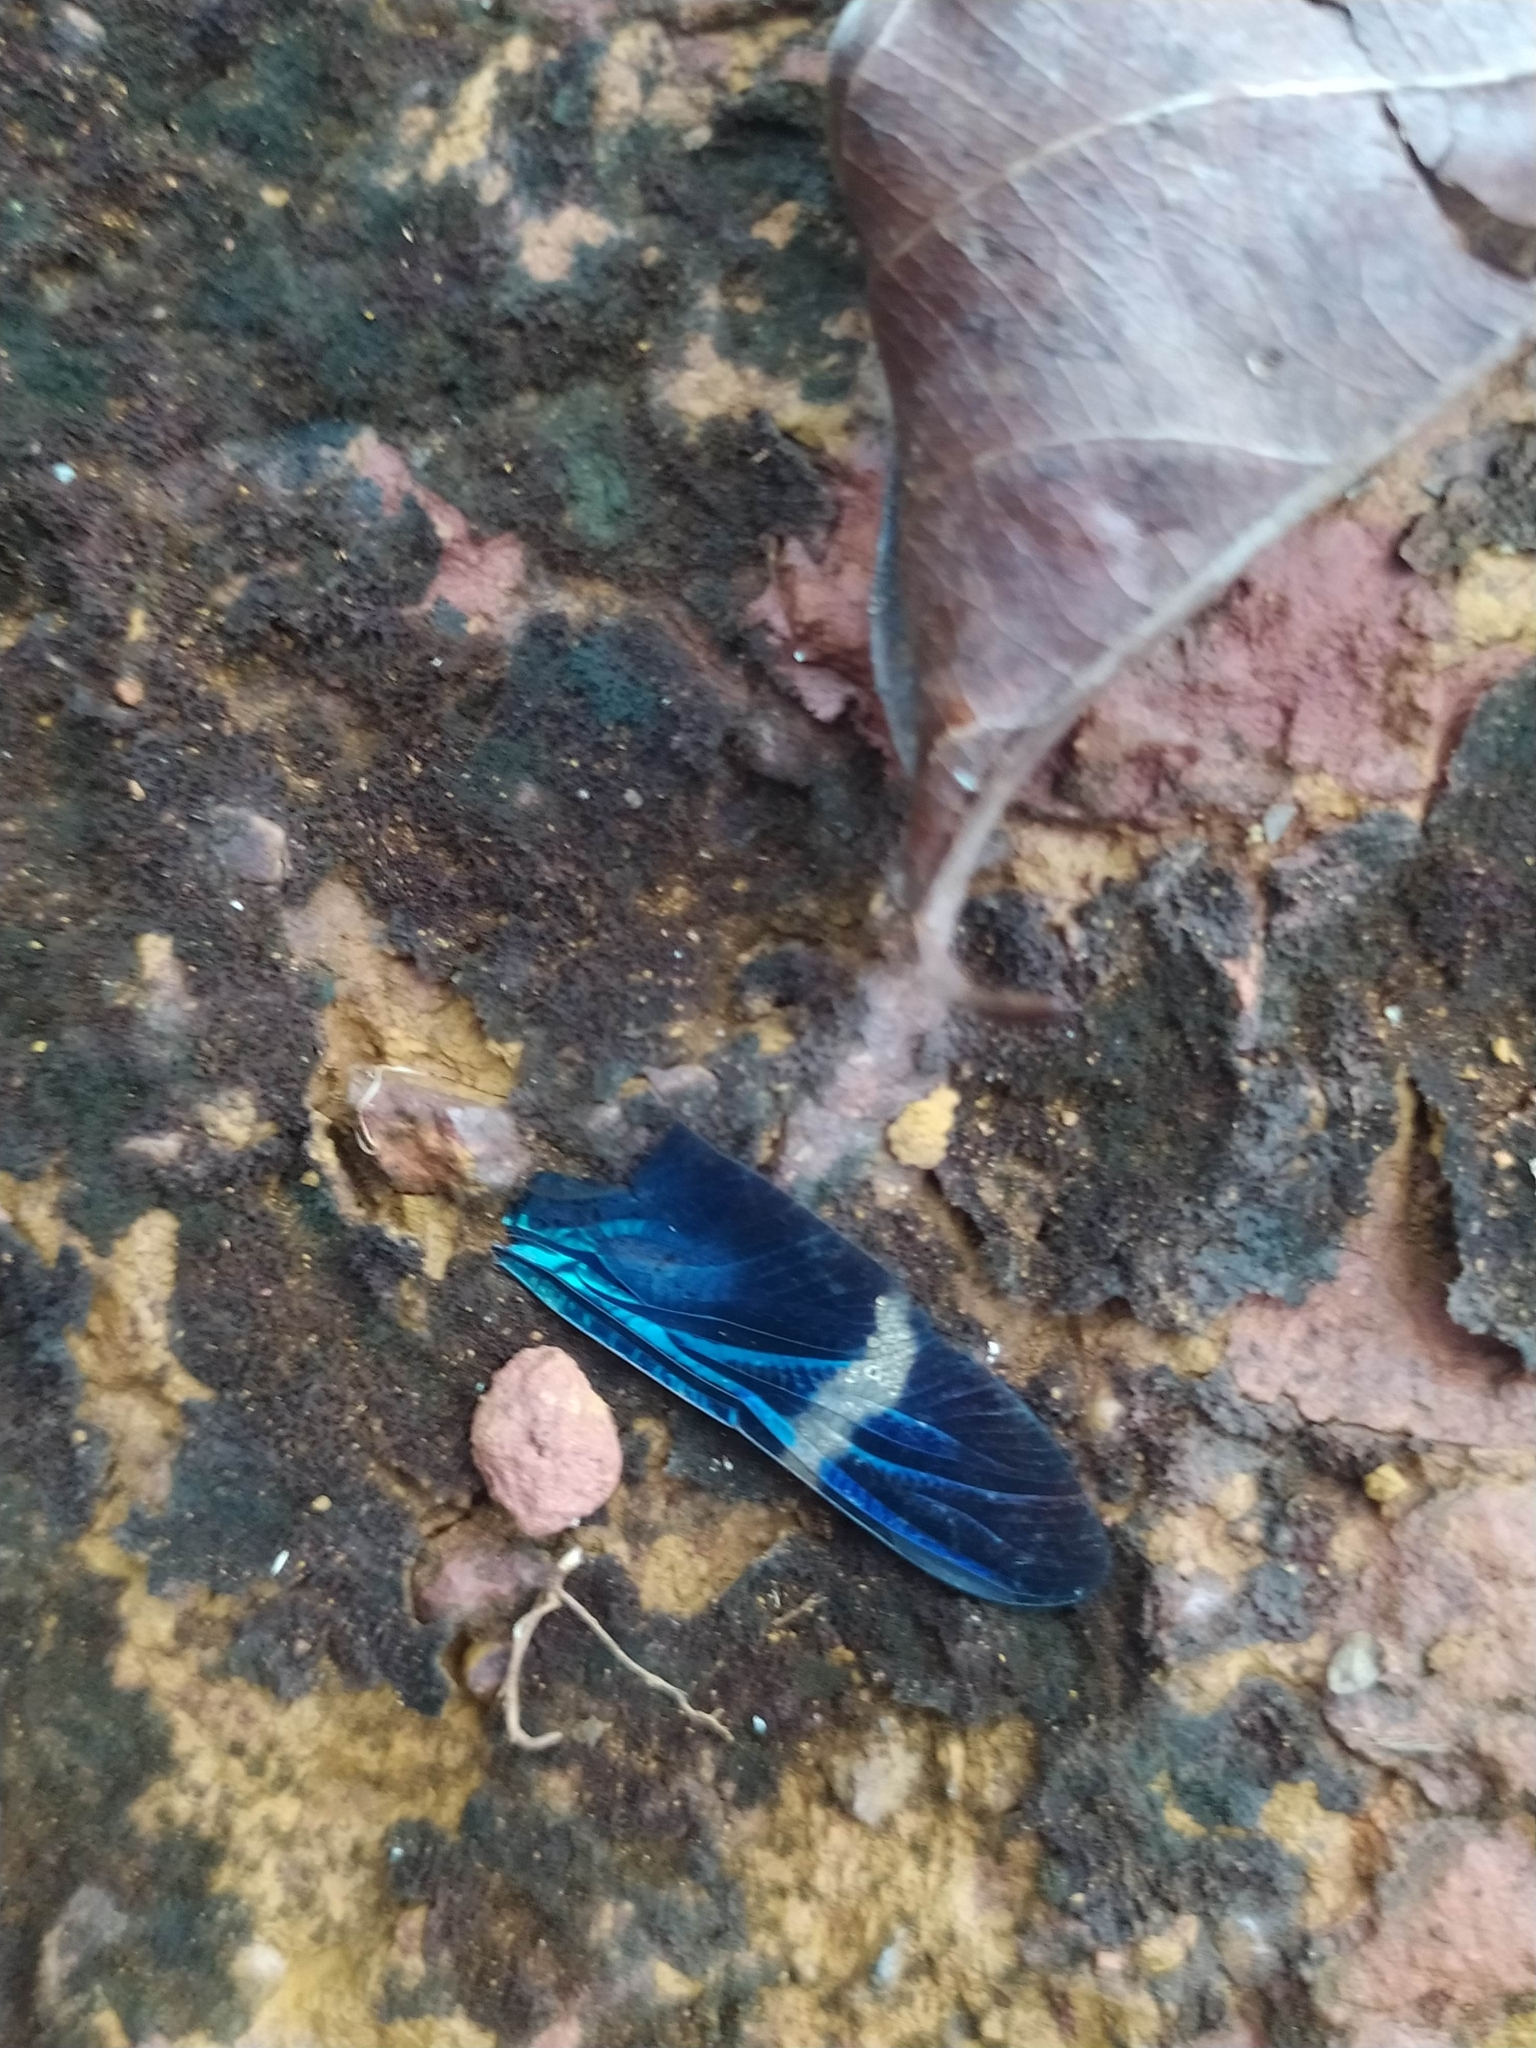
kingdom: Animalia
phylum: Arthropoda
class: Insecta
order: Odonata
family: Libellulidae
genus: Zenithoptera
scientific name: Zenithoptera
